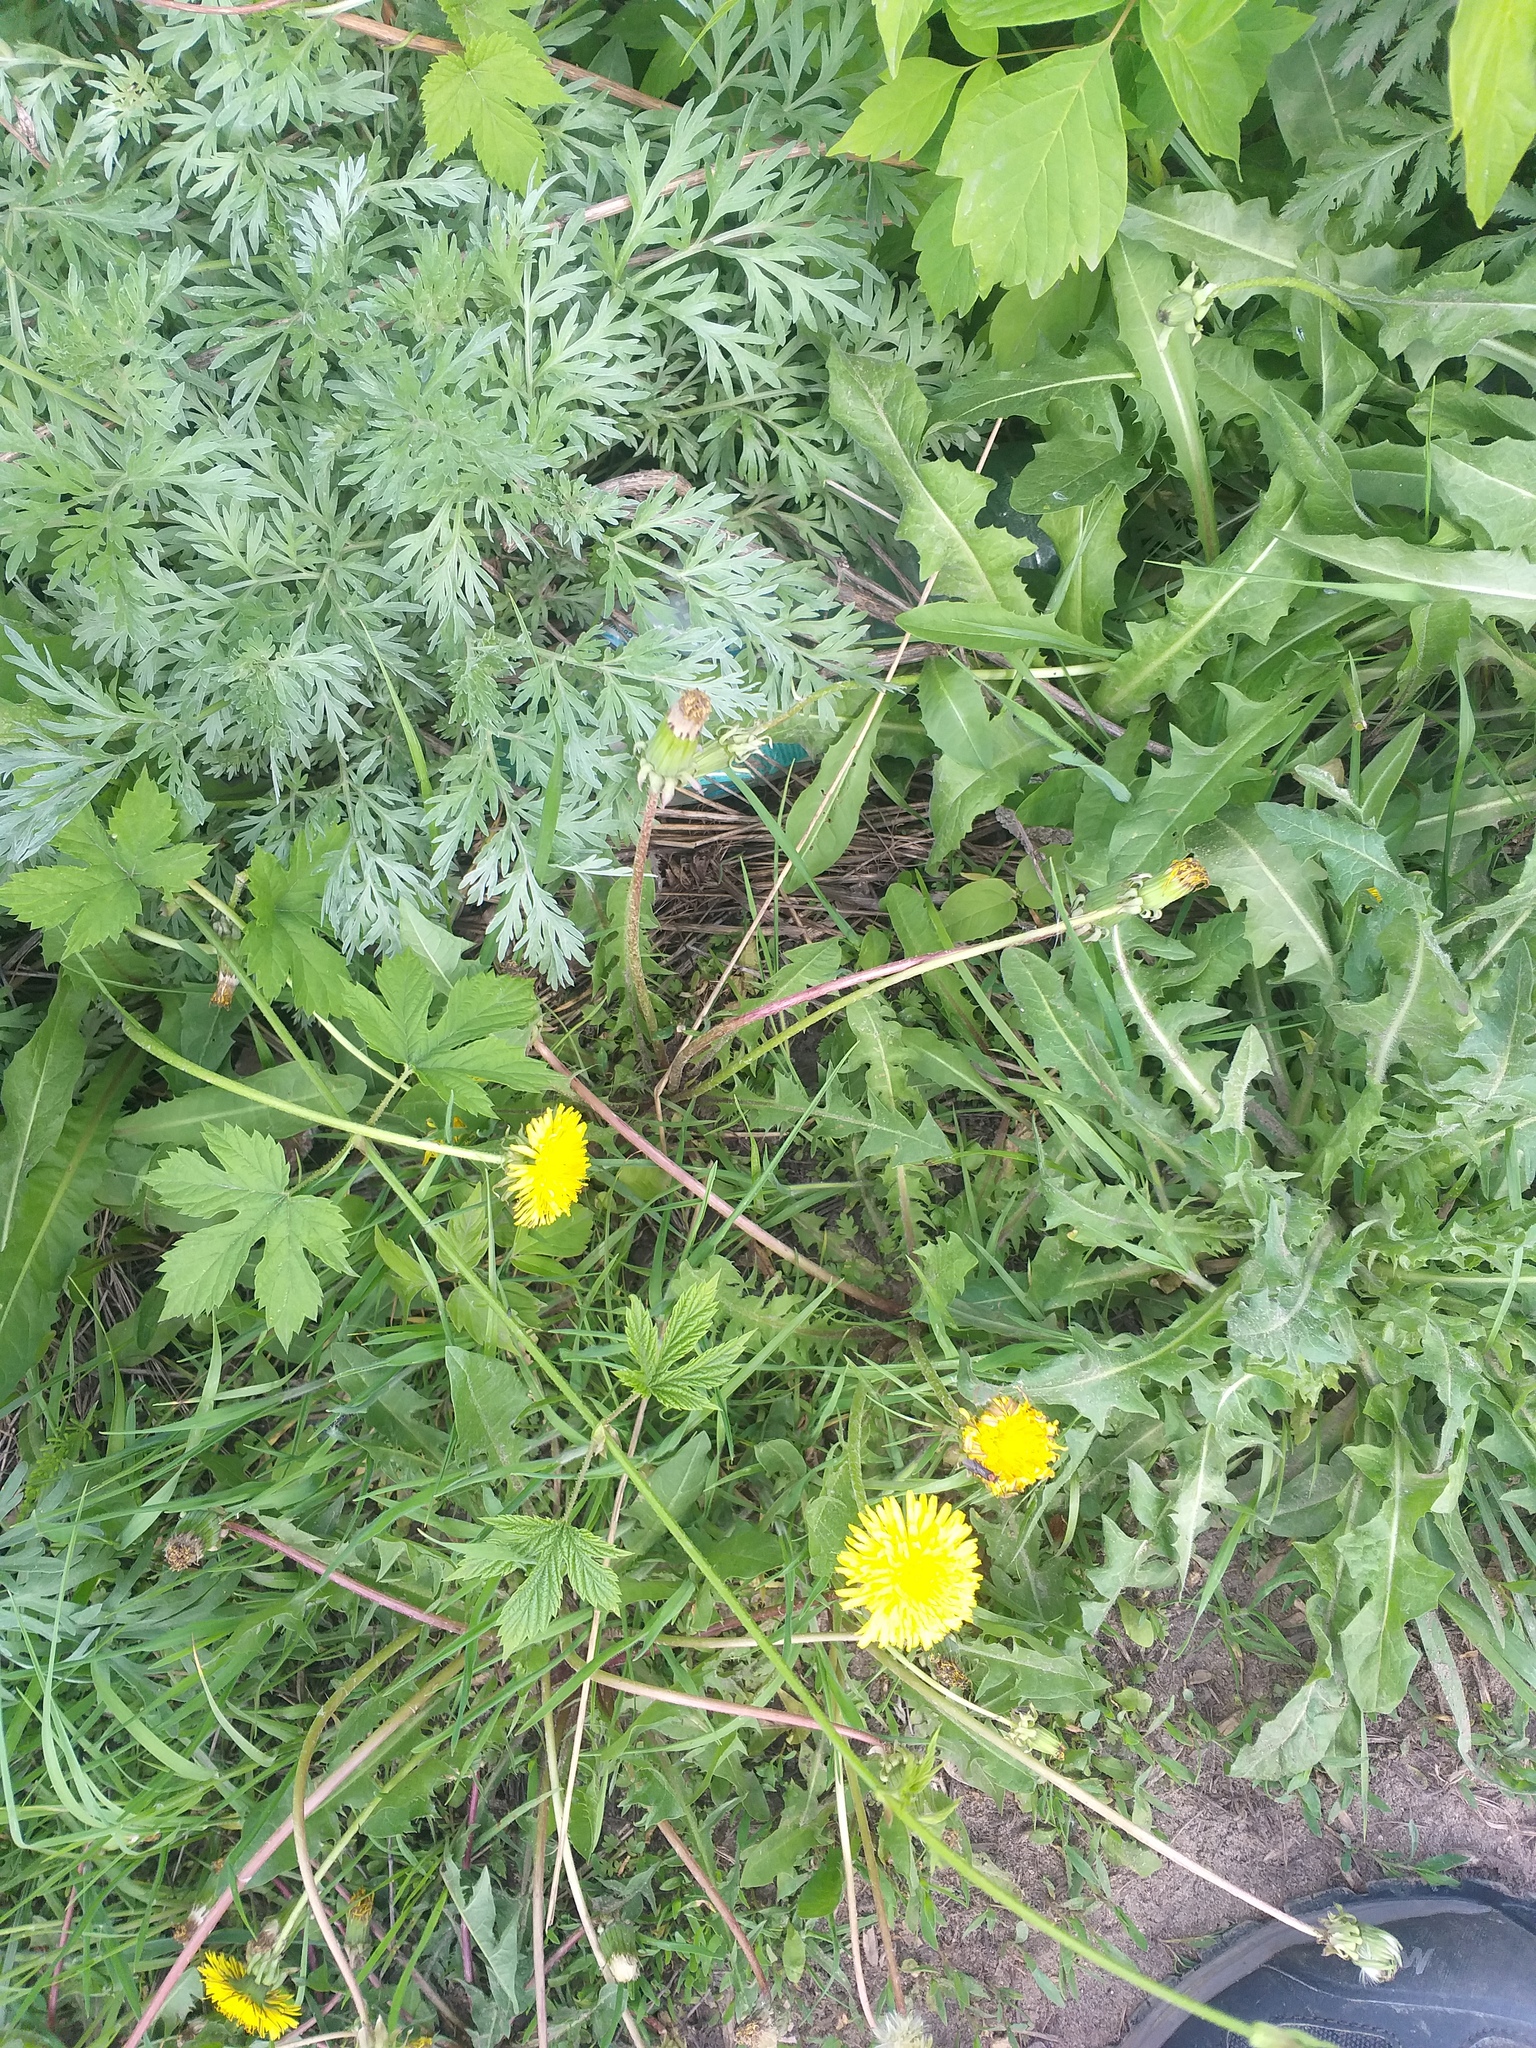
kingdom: Plantae
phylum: Tracheophyta
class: Magnoliopsida
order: Asterales
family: Asteraceae
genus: Taraxacum
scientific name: Taraxacum officinale
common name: Common dandelion
